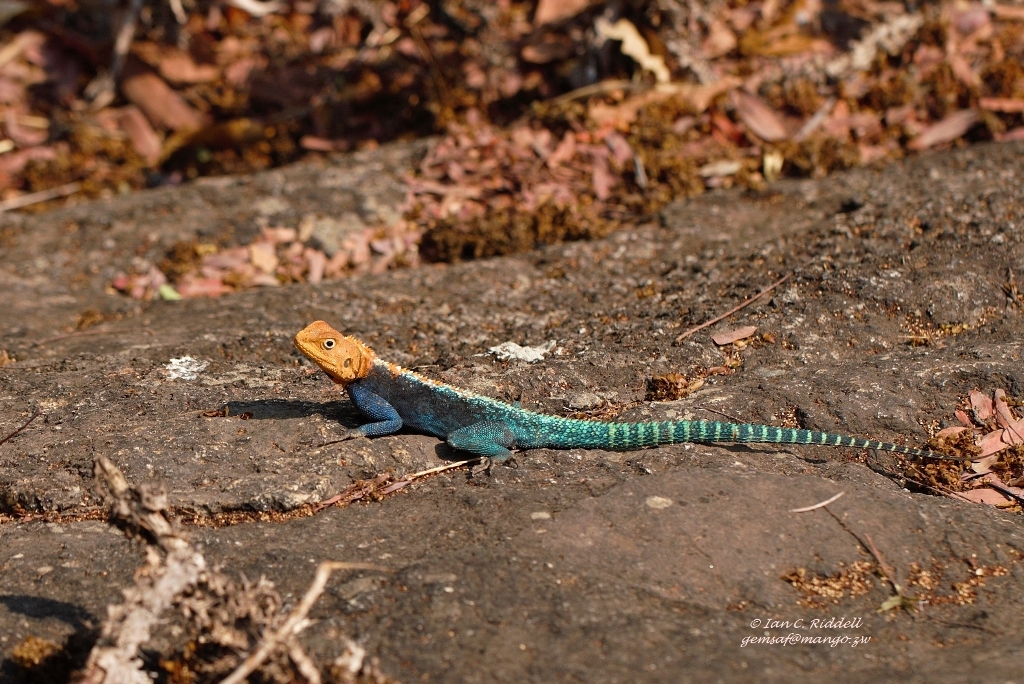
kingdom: Animalia
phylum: Chordata
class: Squamata
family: Agamidae
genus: Agama
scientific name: Agama kirkii
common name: Kirk's rock agama
